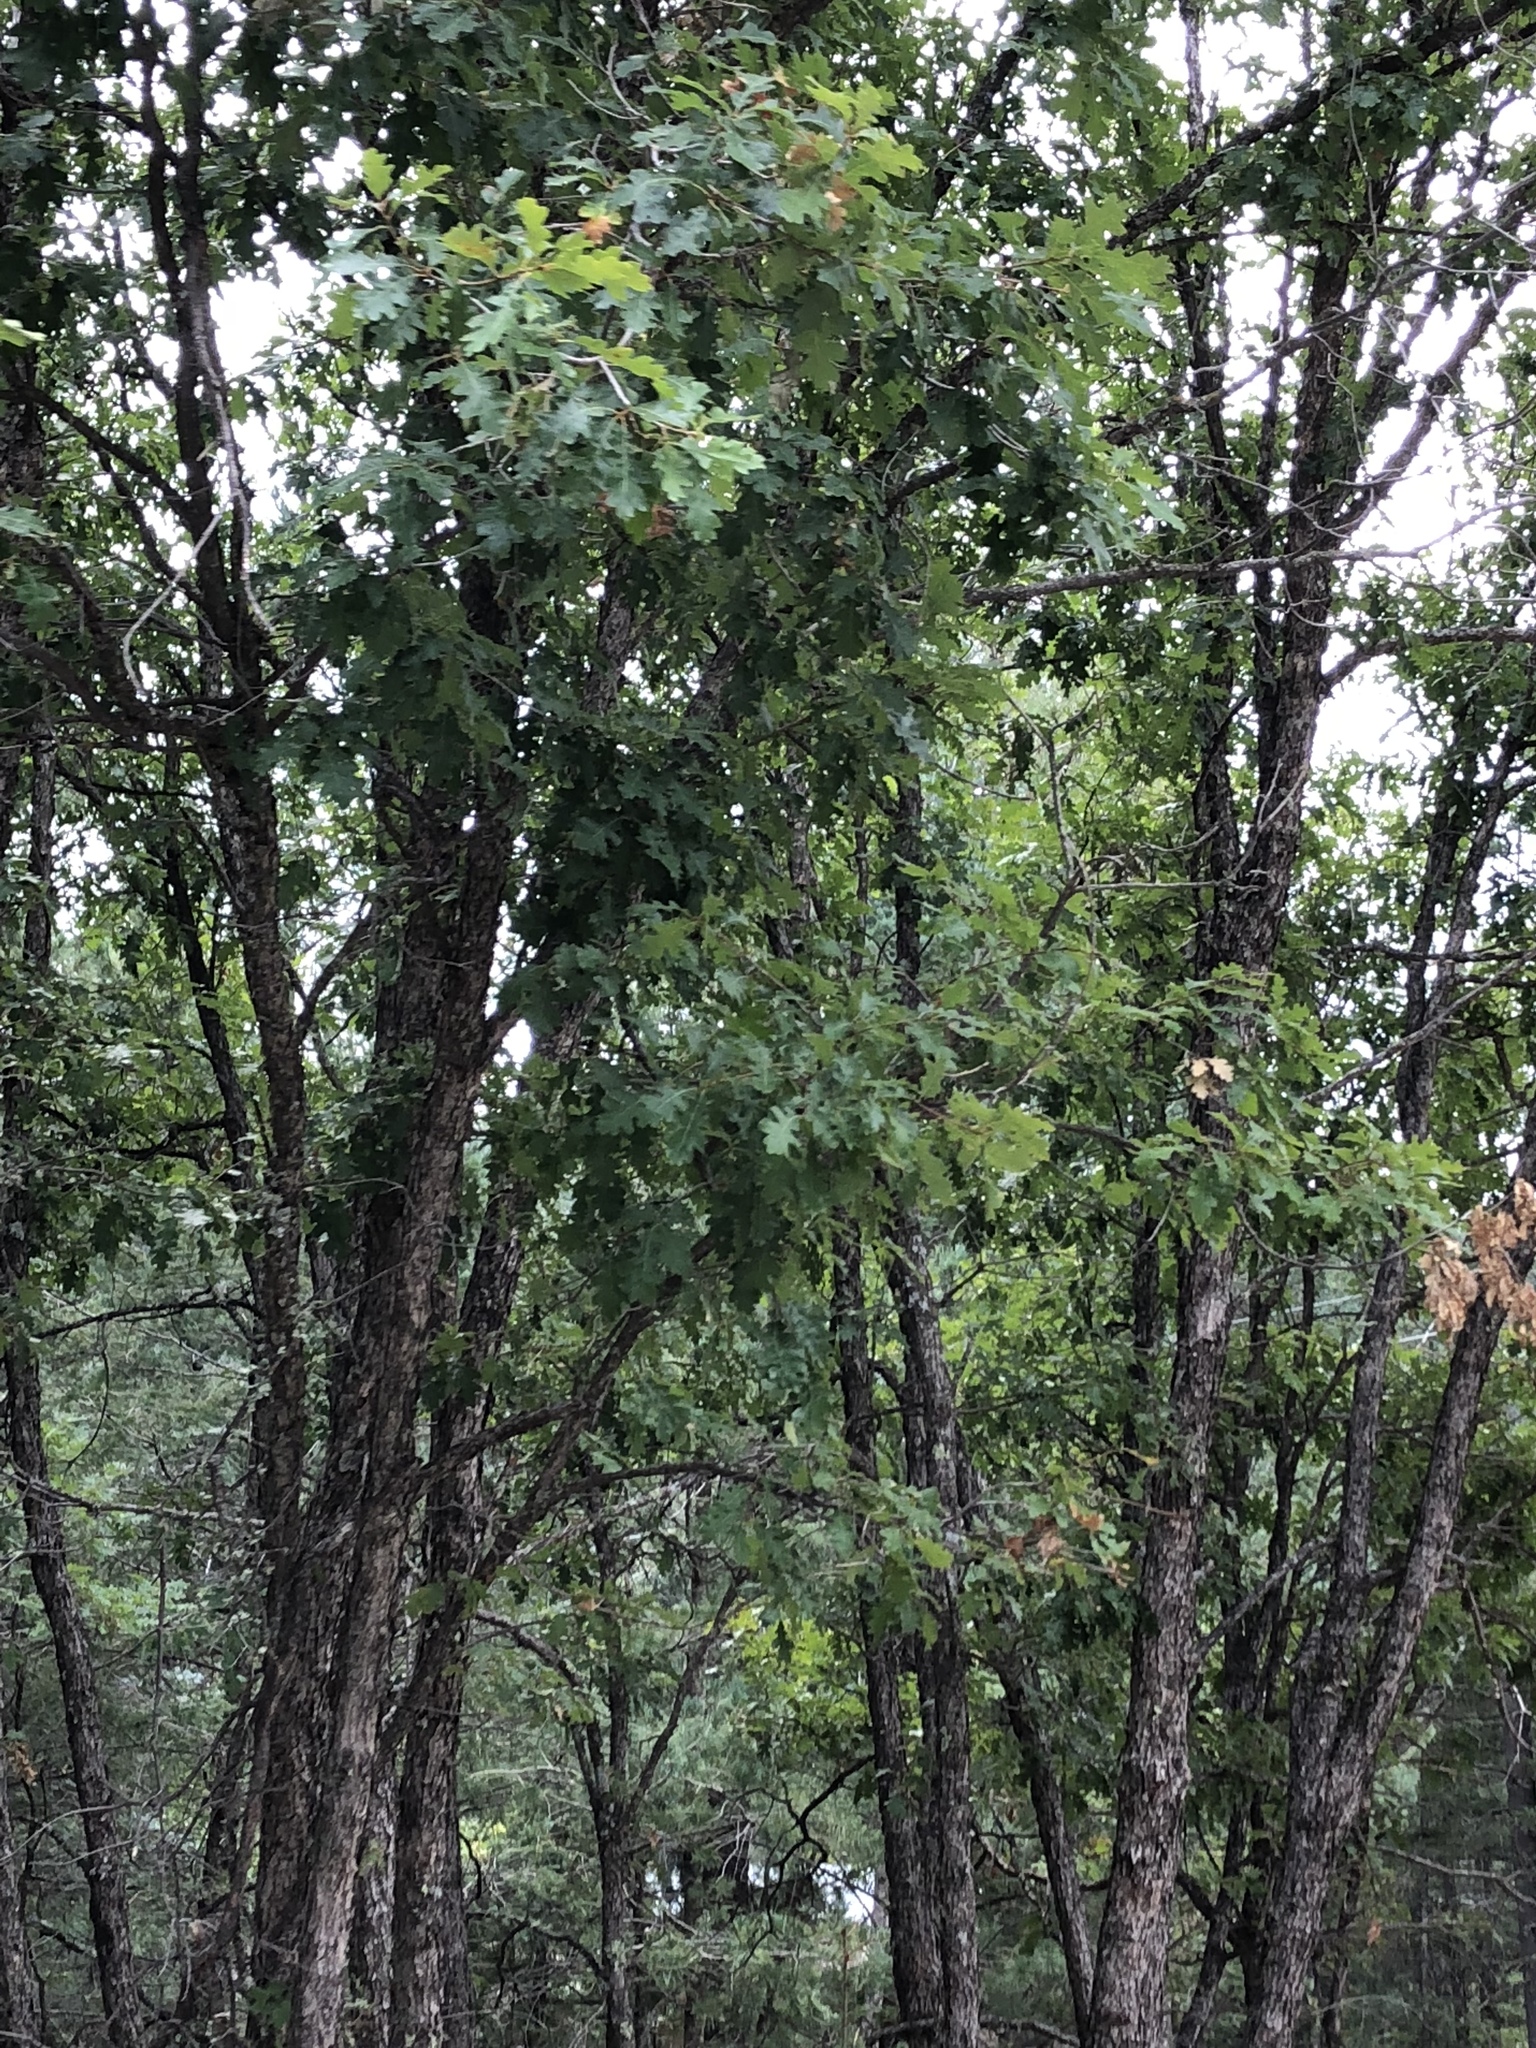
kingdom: Plantae
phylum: Tracheophyta
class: Magnoliopsida
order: Fagales
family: Fagaceae
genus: Quercus
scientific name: Quercus gambelii
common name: Gambel oak
